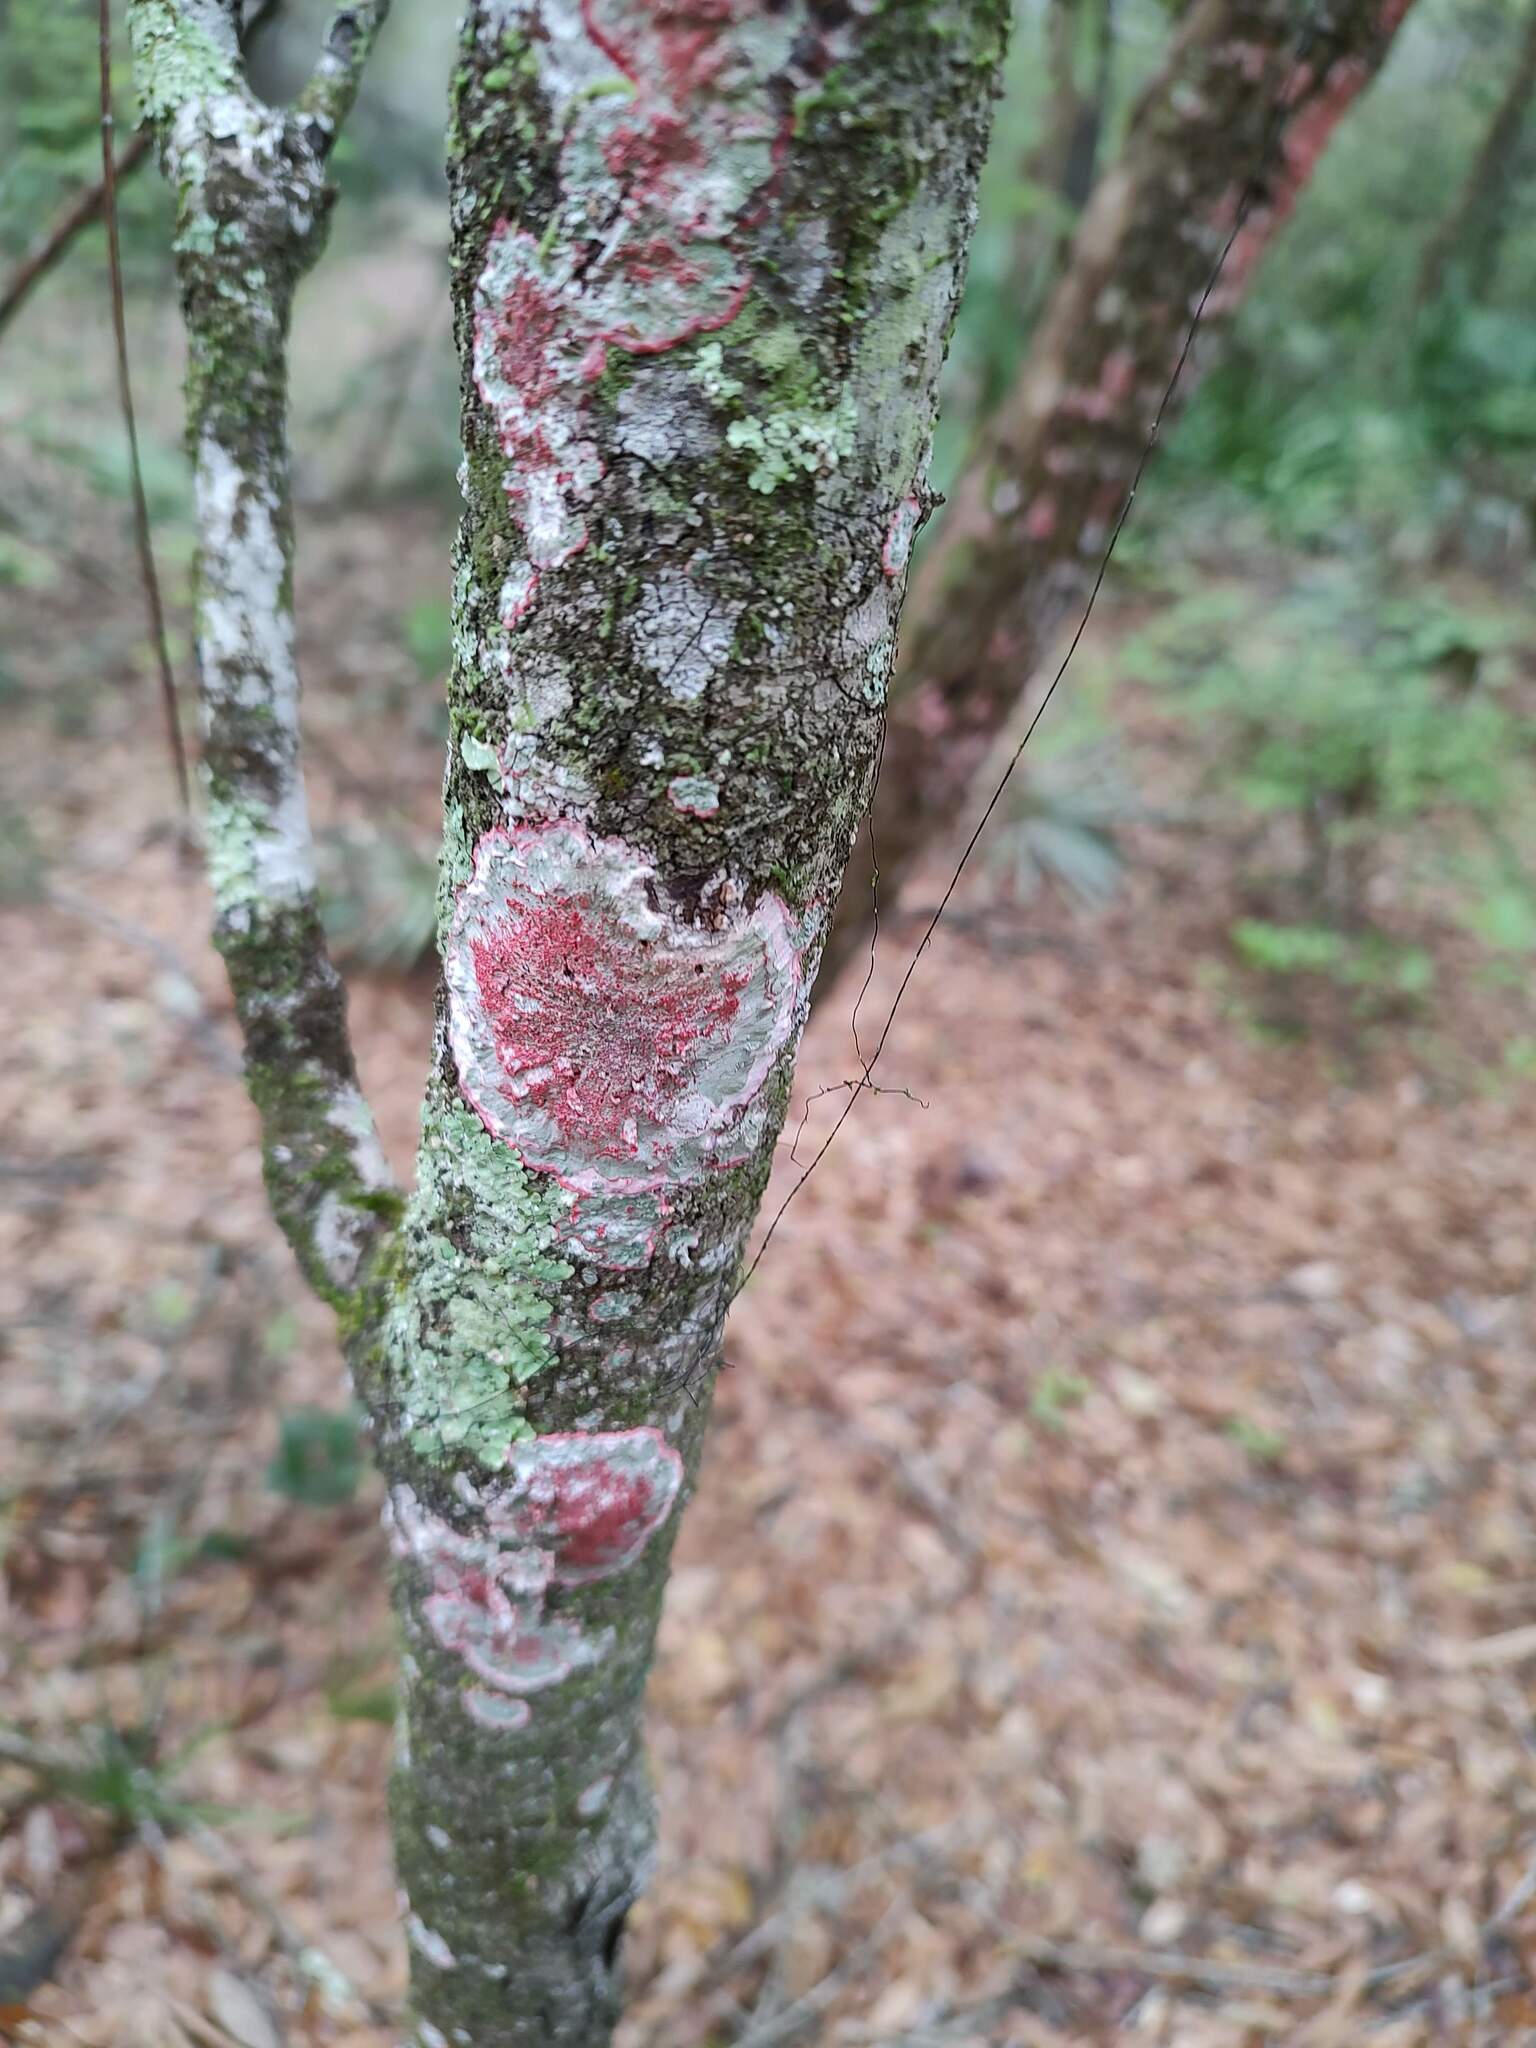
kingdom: Fungi
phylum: Ascomycota
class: Arthoniomycetes
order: Arthoniales
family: Arthoniaceae
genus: Herpothallon
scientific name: Herpothallon rubrocinctum
